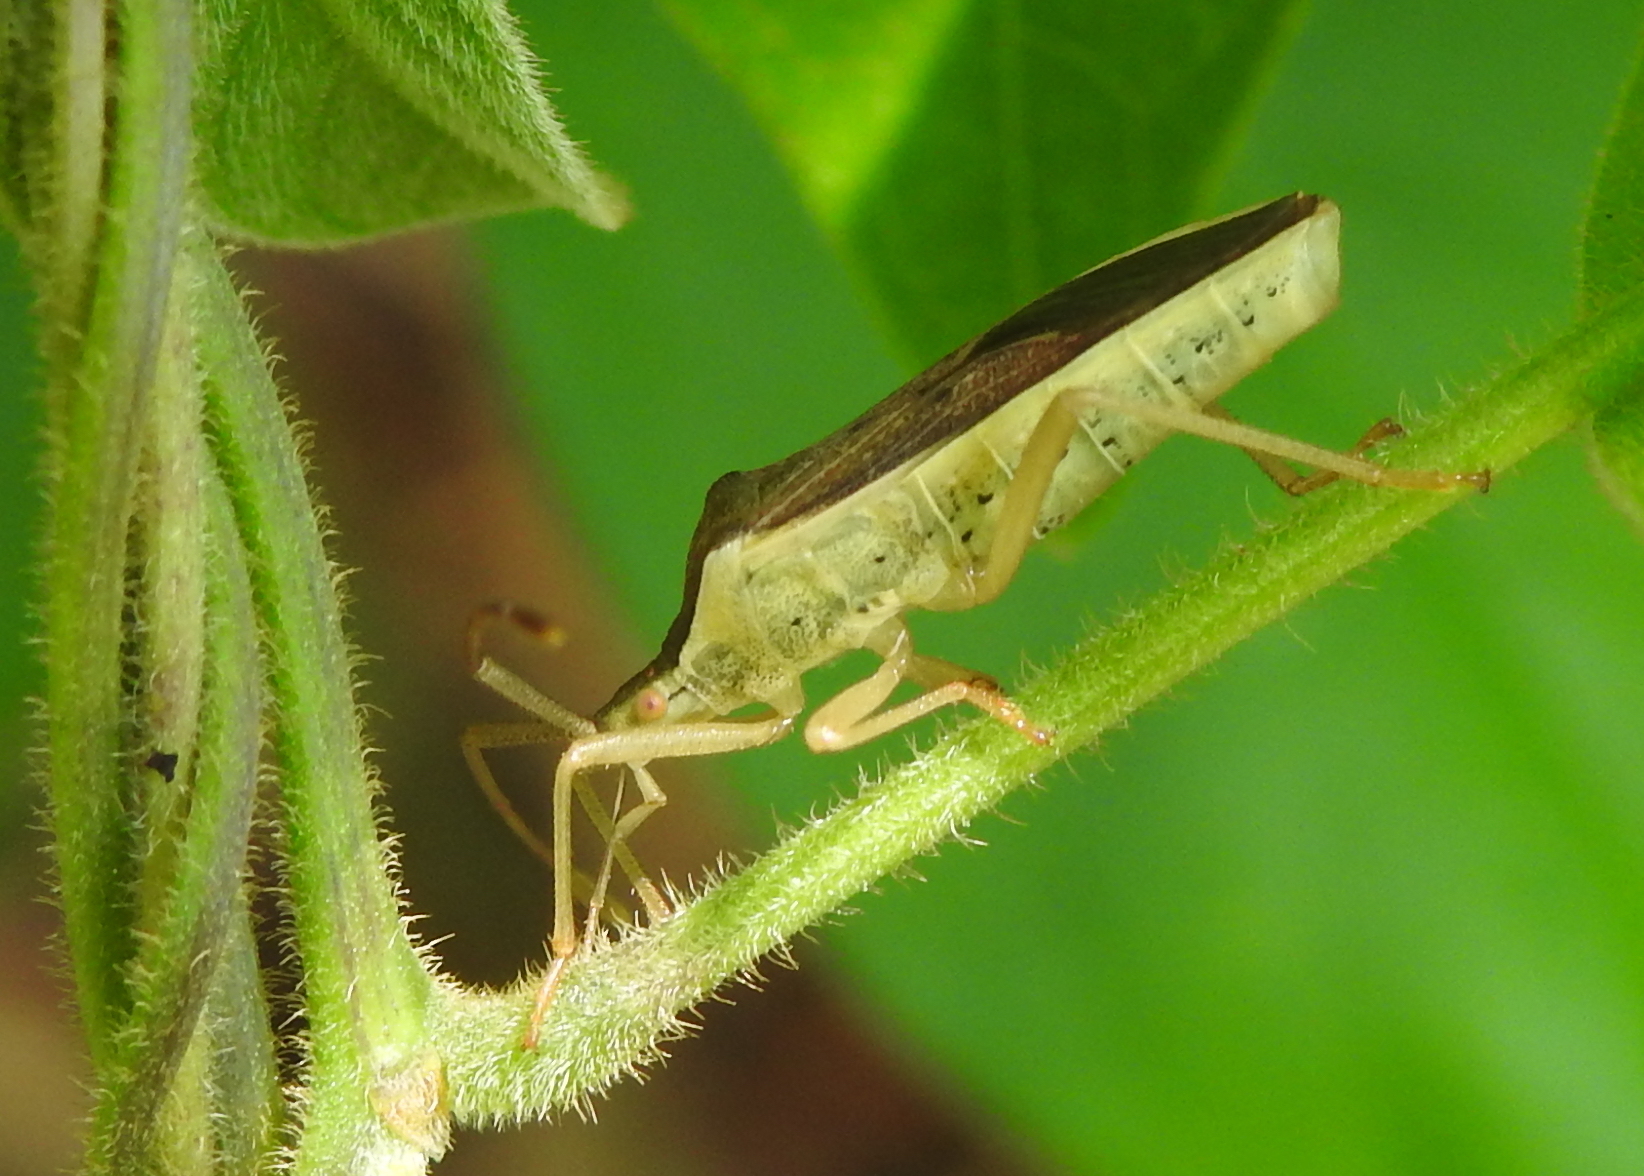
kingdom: Animalia
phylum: Arthropoda
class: Insecta
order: Hemiptera
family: Coreidae
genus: Homoeocerus
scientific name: Homoeocerus marginellus
